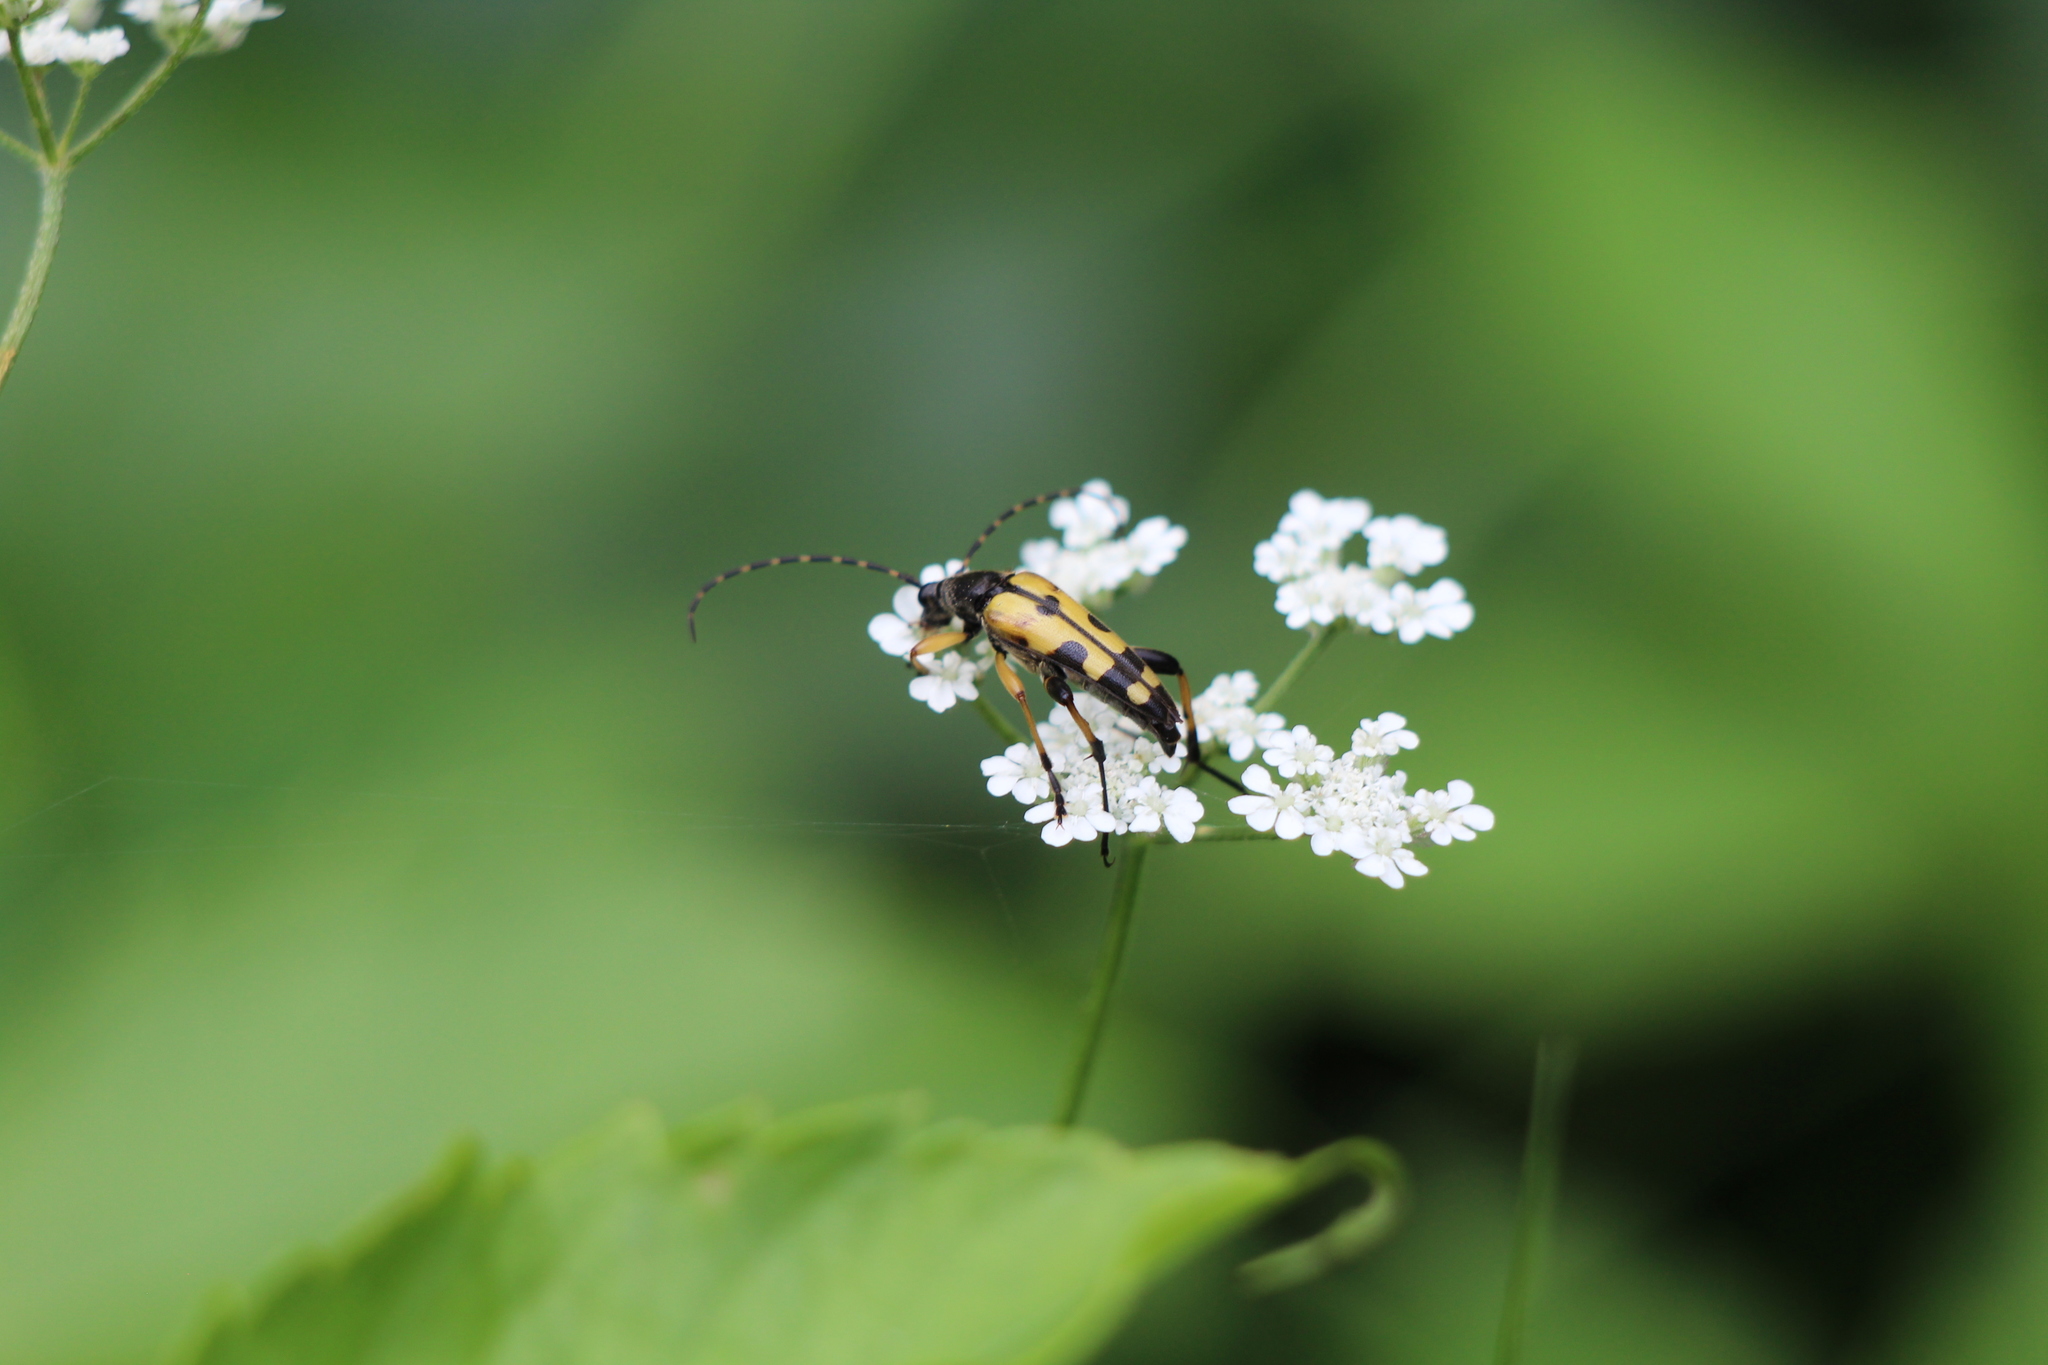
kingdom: Animalia
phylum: Arthropoda
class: Insecta
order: Coleoptera
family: Cerambycidae
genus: Rutpela
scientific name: Rutpela maculata
